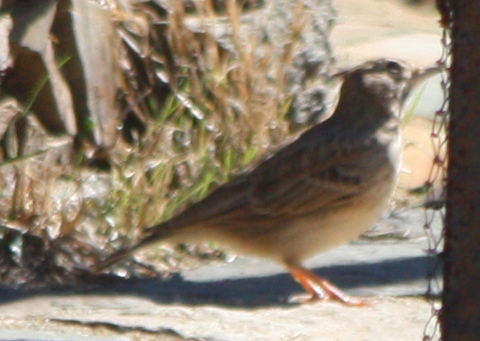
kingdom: Animalia
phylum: Chordata
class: Aves
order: Passeriformes
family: Alaudidae
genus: Galerida
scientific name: Galerida cristata
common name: Crested lark
